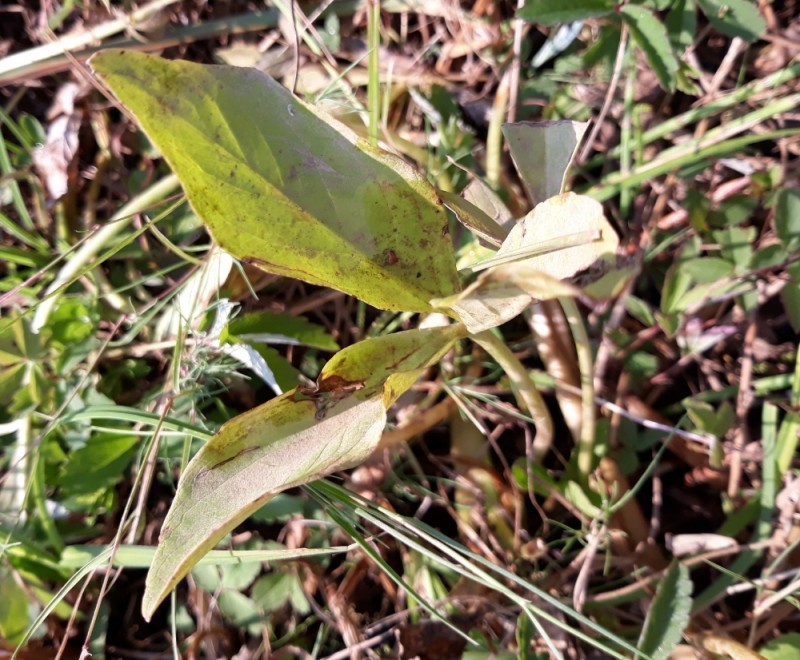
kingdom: Plantae
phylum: Tracheophyta
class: Magnoliopsida
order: Asterales
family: Menyanthaceae
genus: Menyanthes
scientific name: Menyanthes trifoliata
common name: Bogbean
